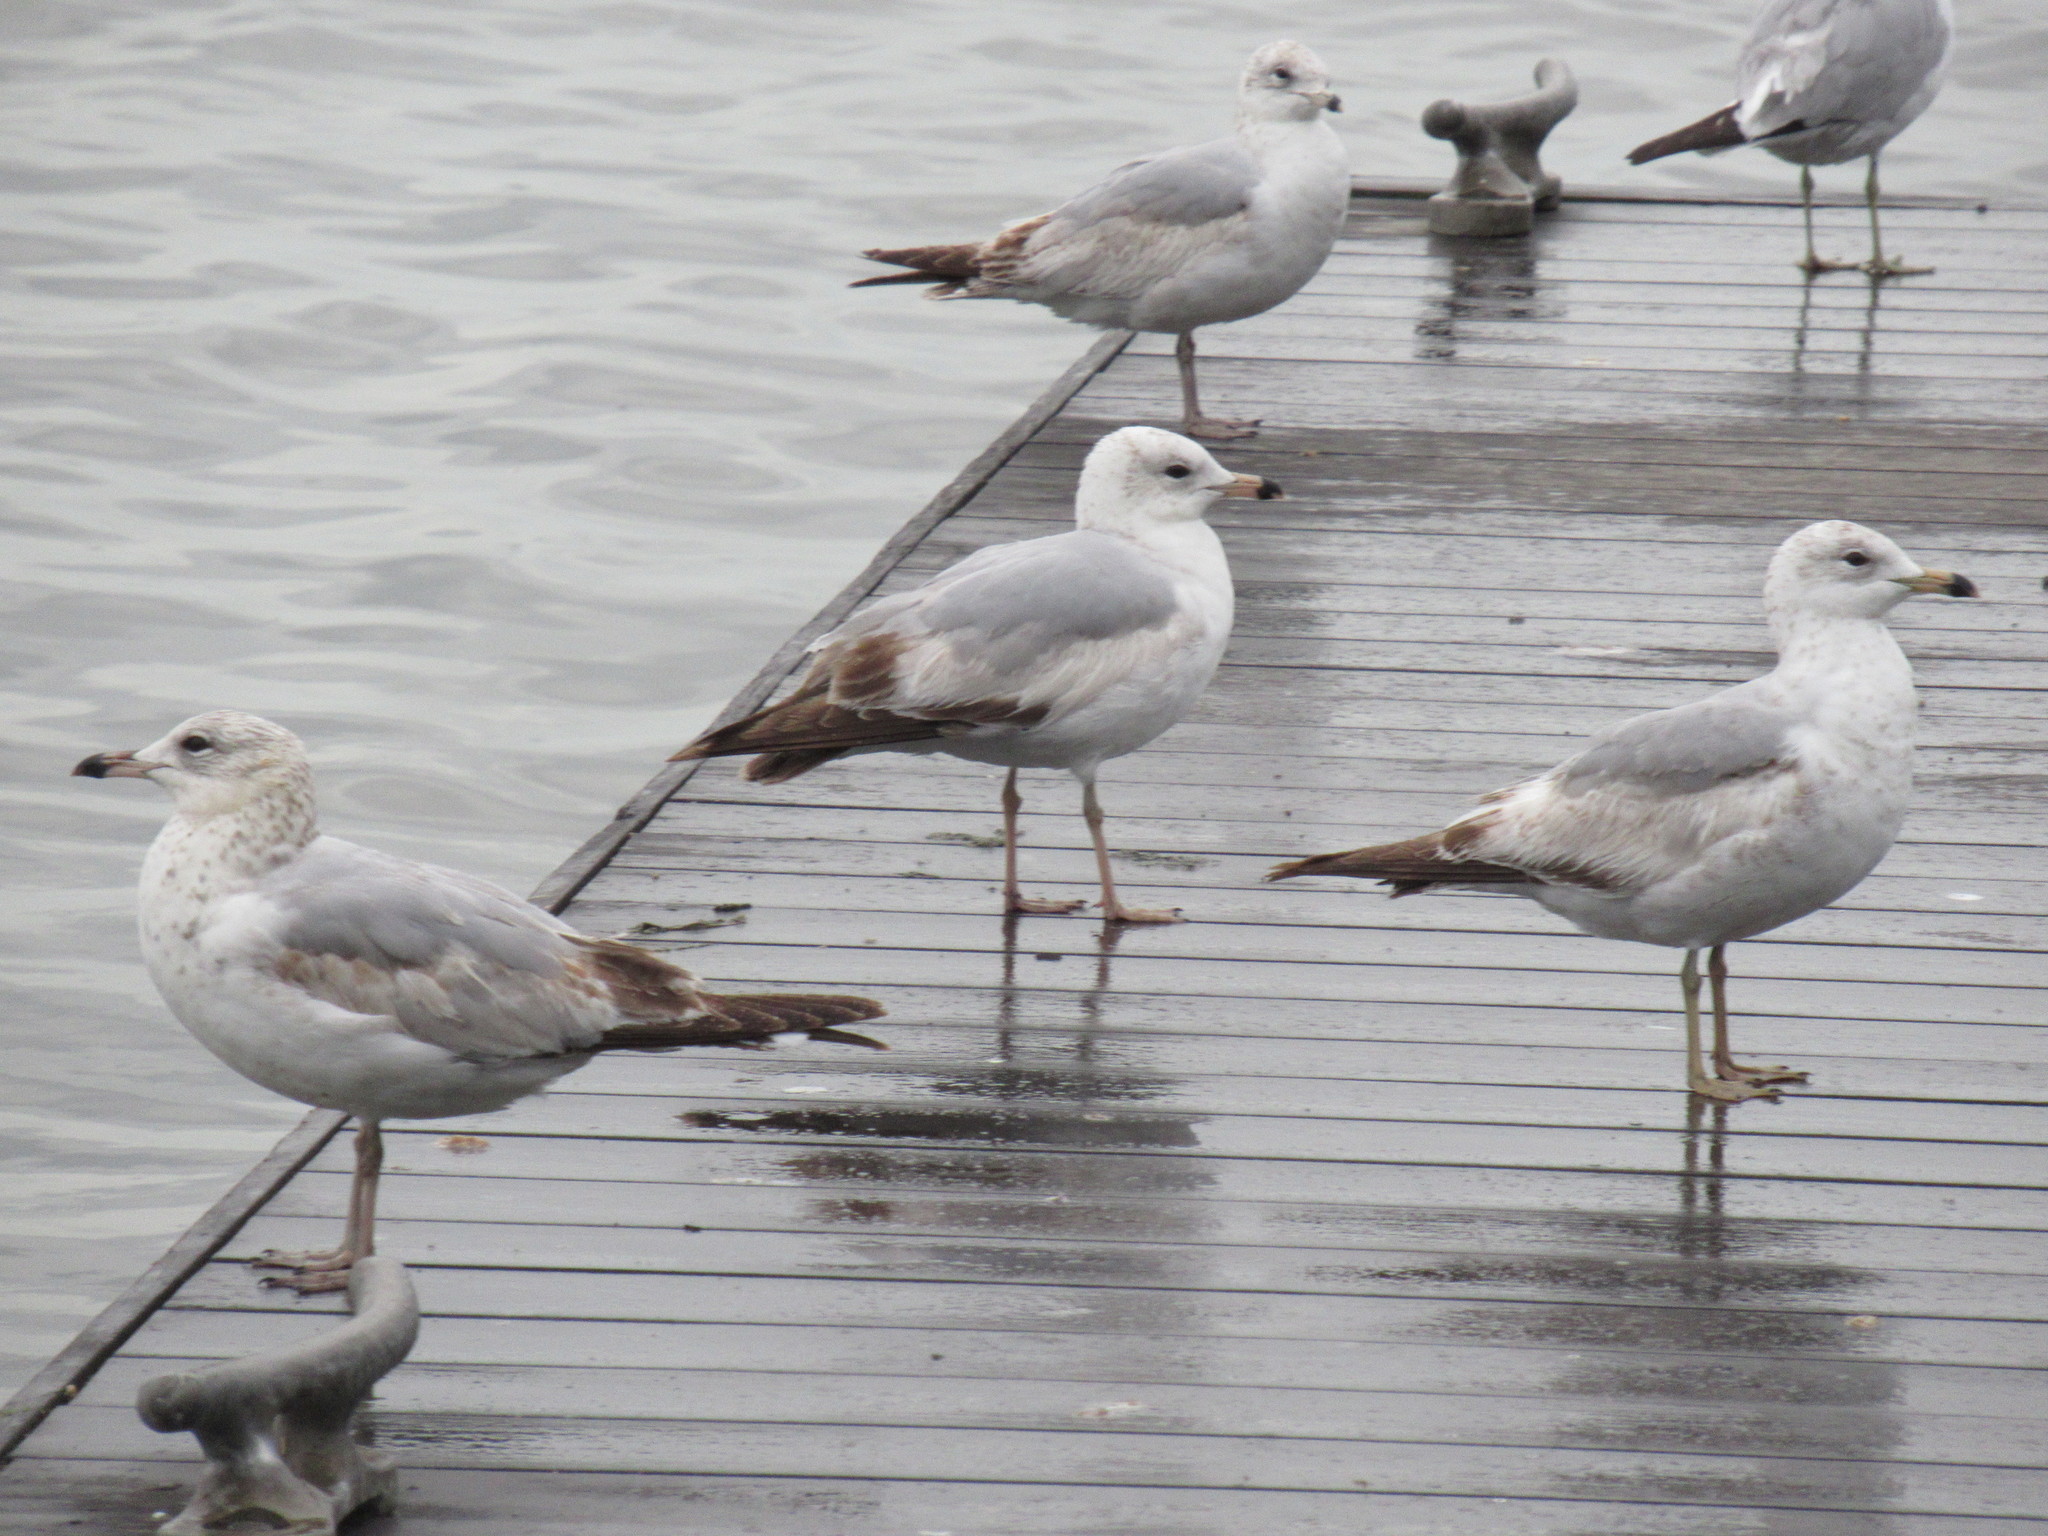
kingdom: Animalia
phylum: Chordata
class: Aves
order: Charadriiformes
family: Laridae
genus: Larus
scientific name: Larus delawarensis
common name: Ring-billed gull
